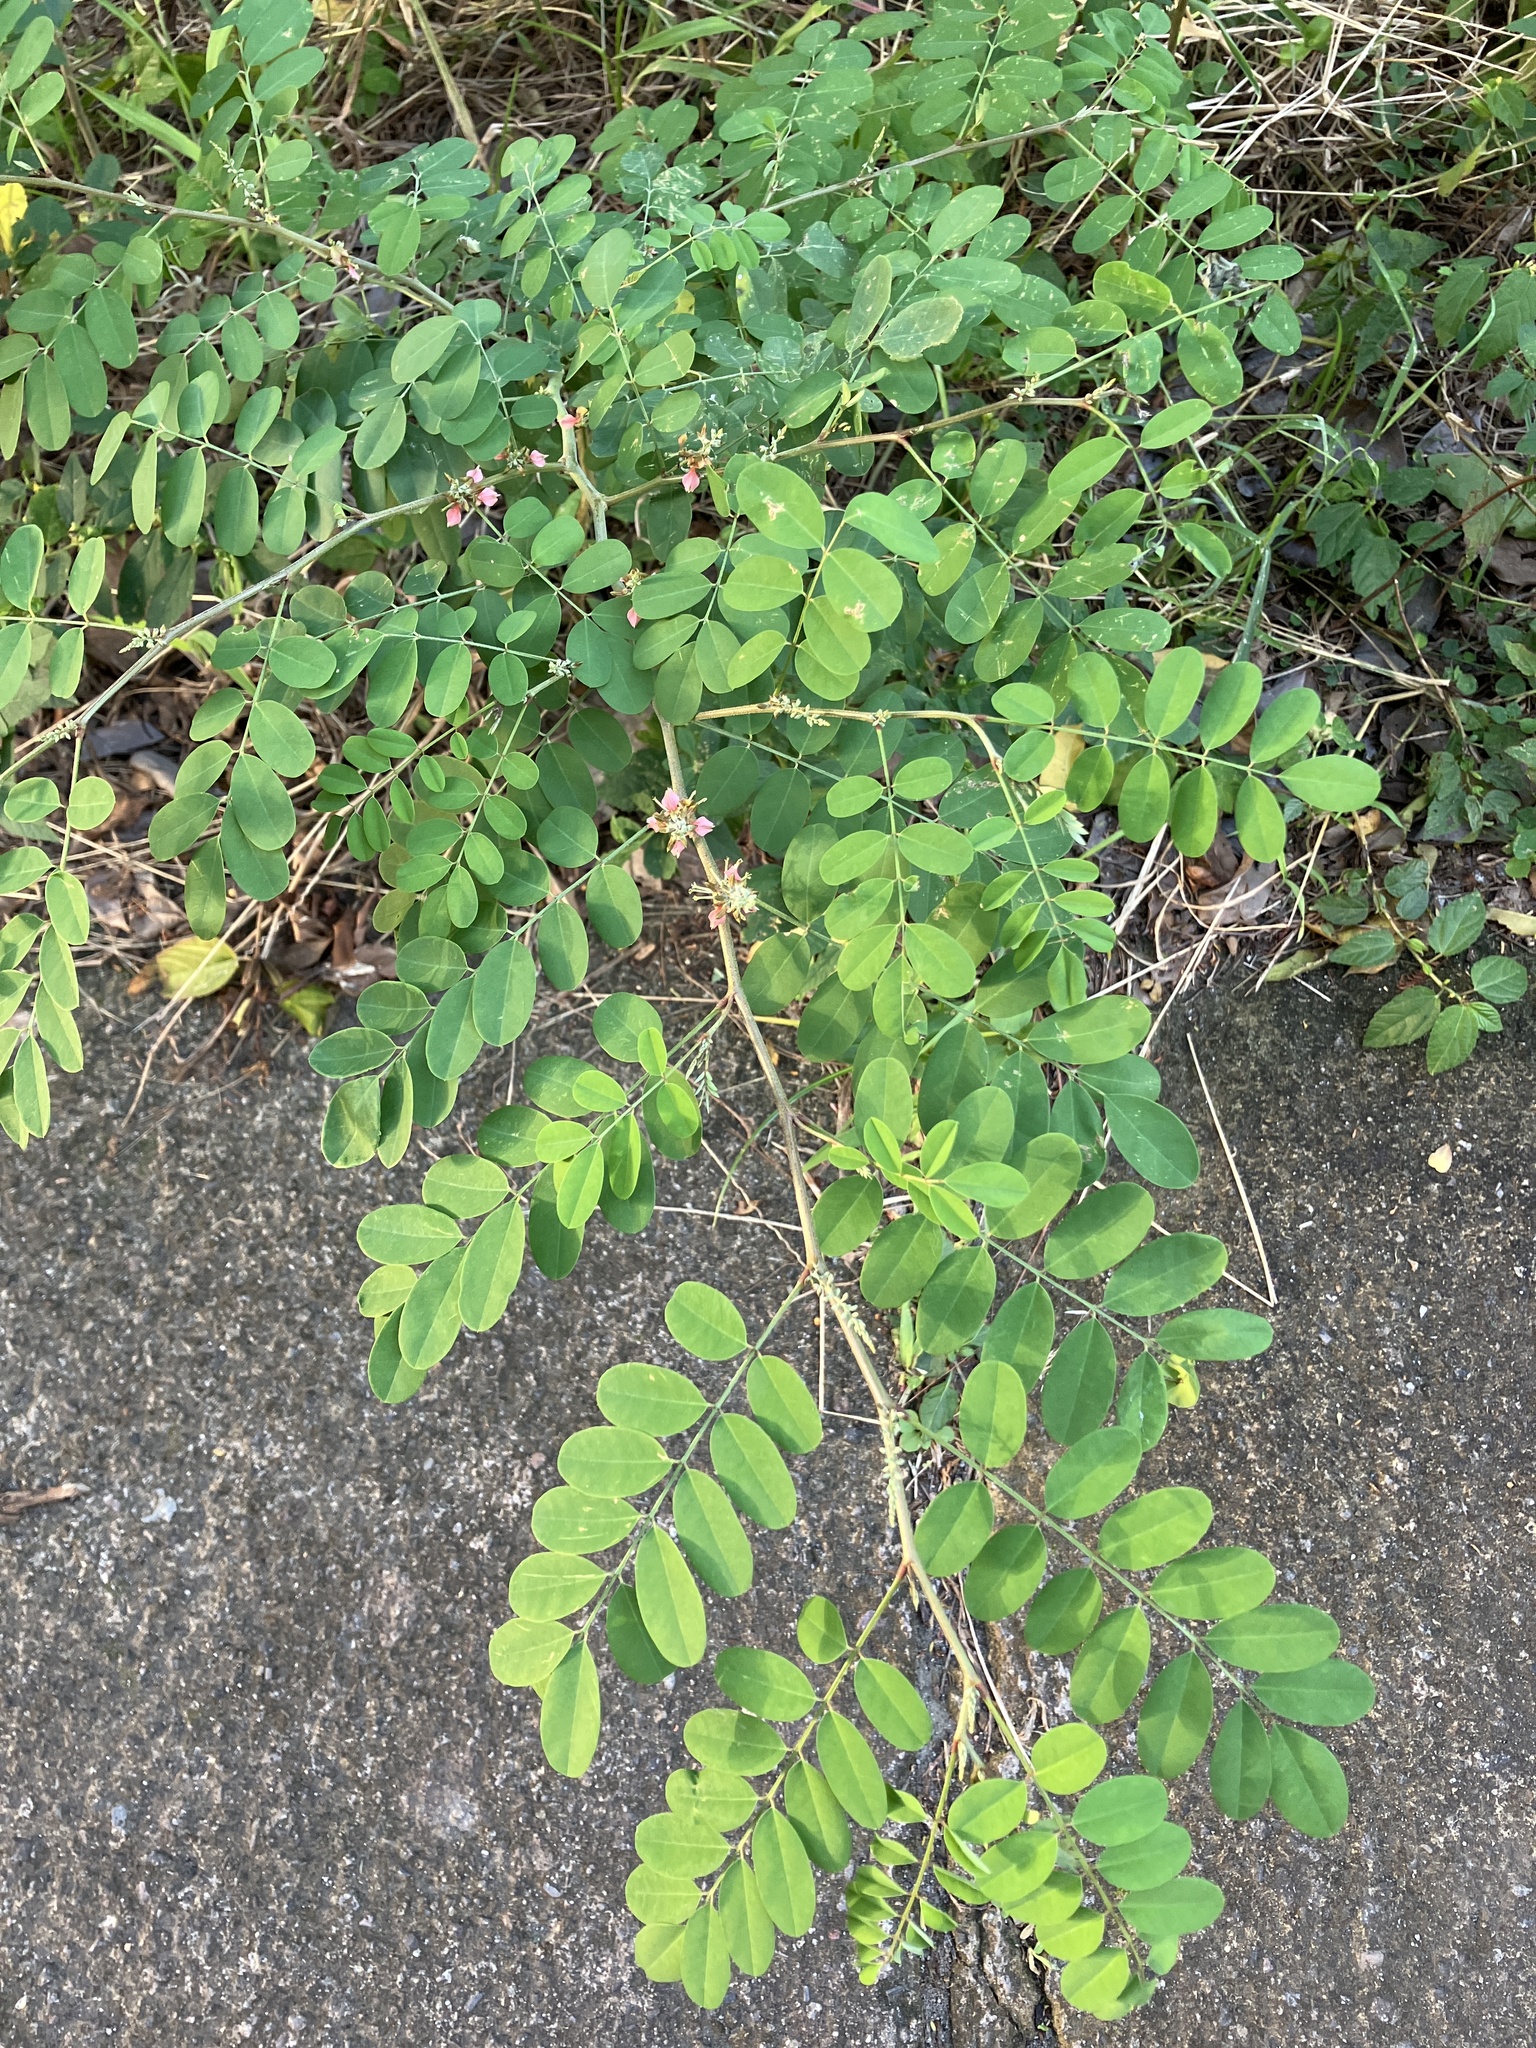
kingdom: Plantae
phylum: Tracheophyta
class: Magnoliopsida
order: Fabales
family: Fabaceae
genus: Indigofera
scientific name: Indigofera tinctoria
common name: True indigo
